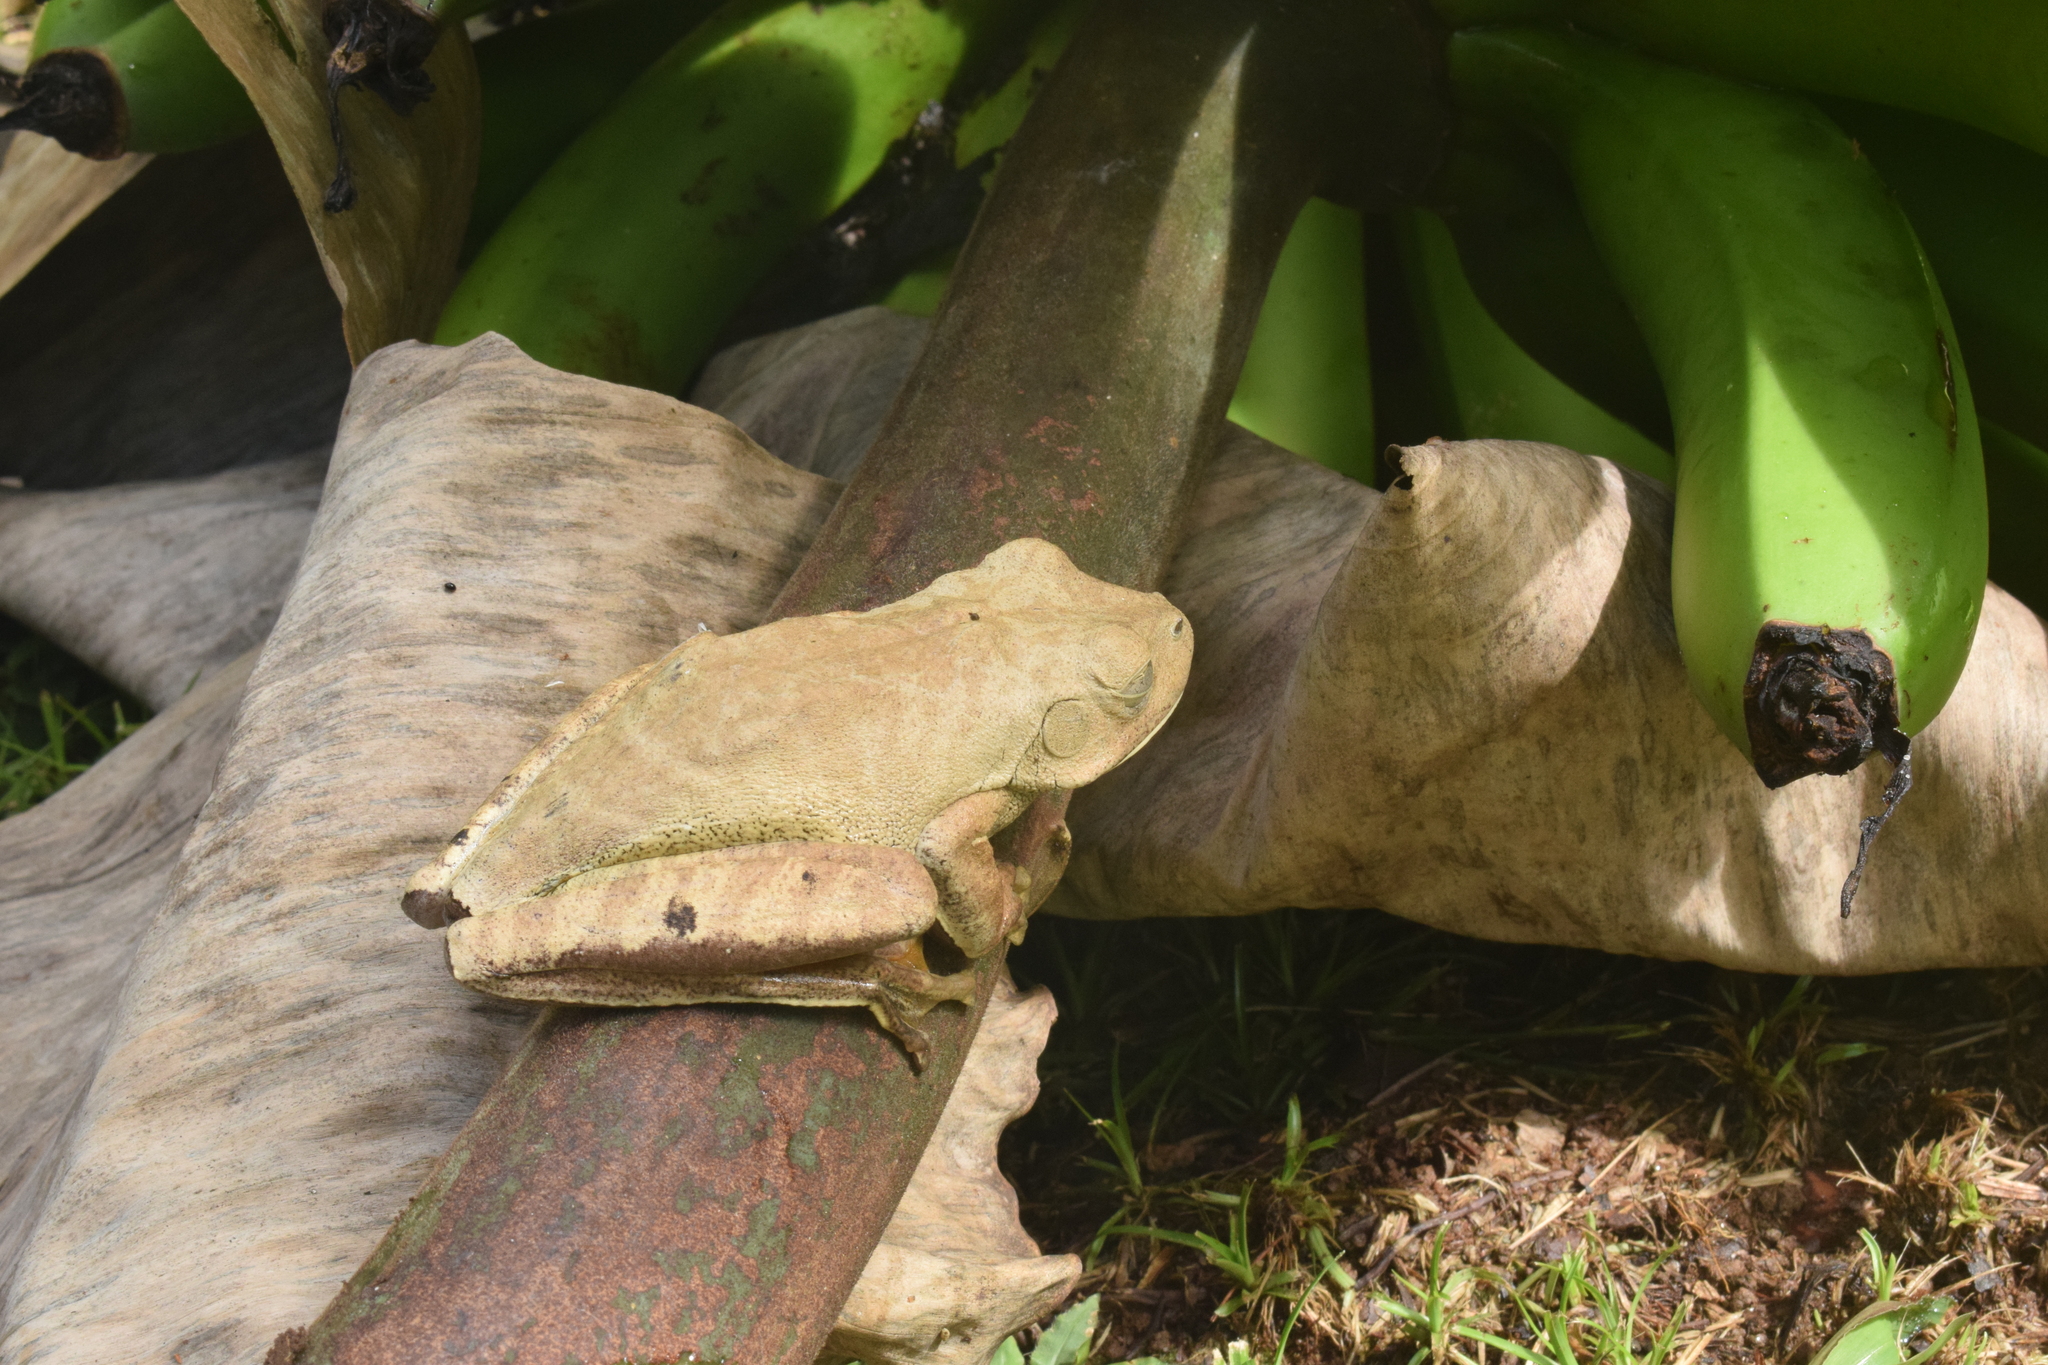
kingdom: Animalia
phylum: Chordata
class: Amphibia
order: Anura
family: Hylidae
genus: Boana
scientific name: Boana faber
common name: Blacksmith tree frog
